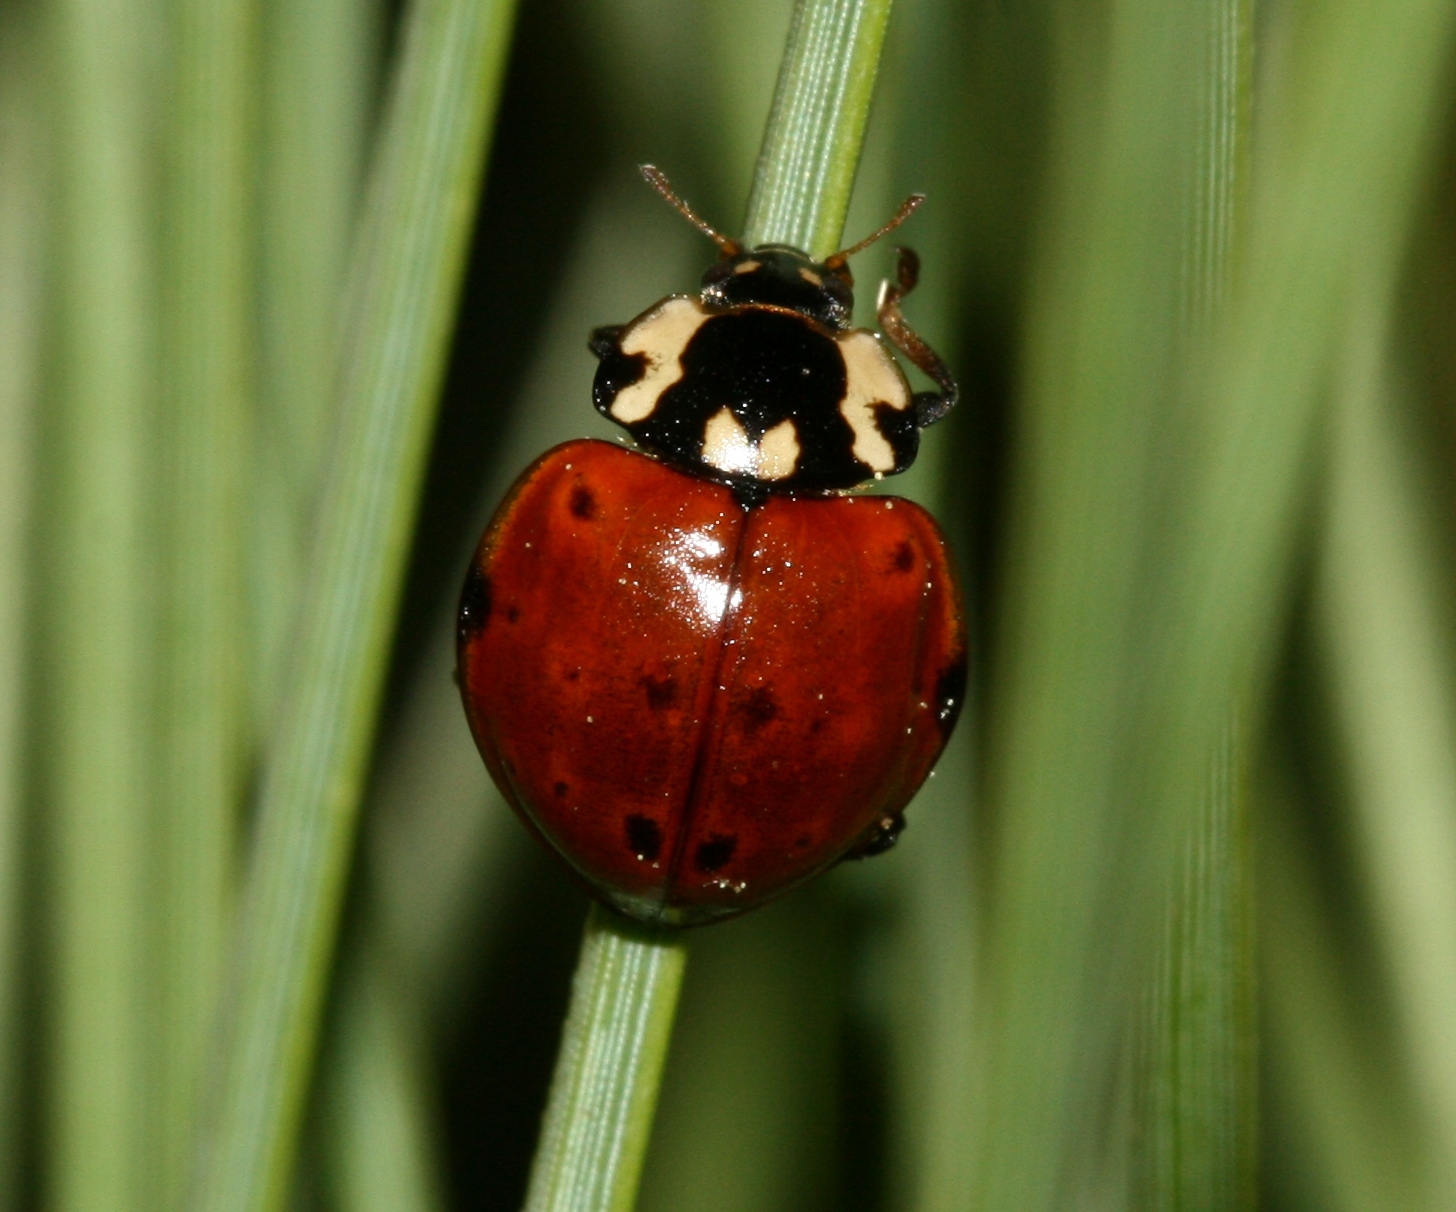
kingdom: Animalia
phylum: Arthropoda
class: Insecta
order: Coleoptera
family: Coccinellidae
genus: Anatis
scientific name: Anatis rathvoni
